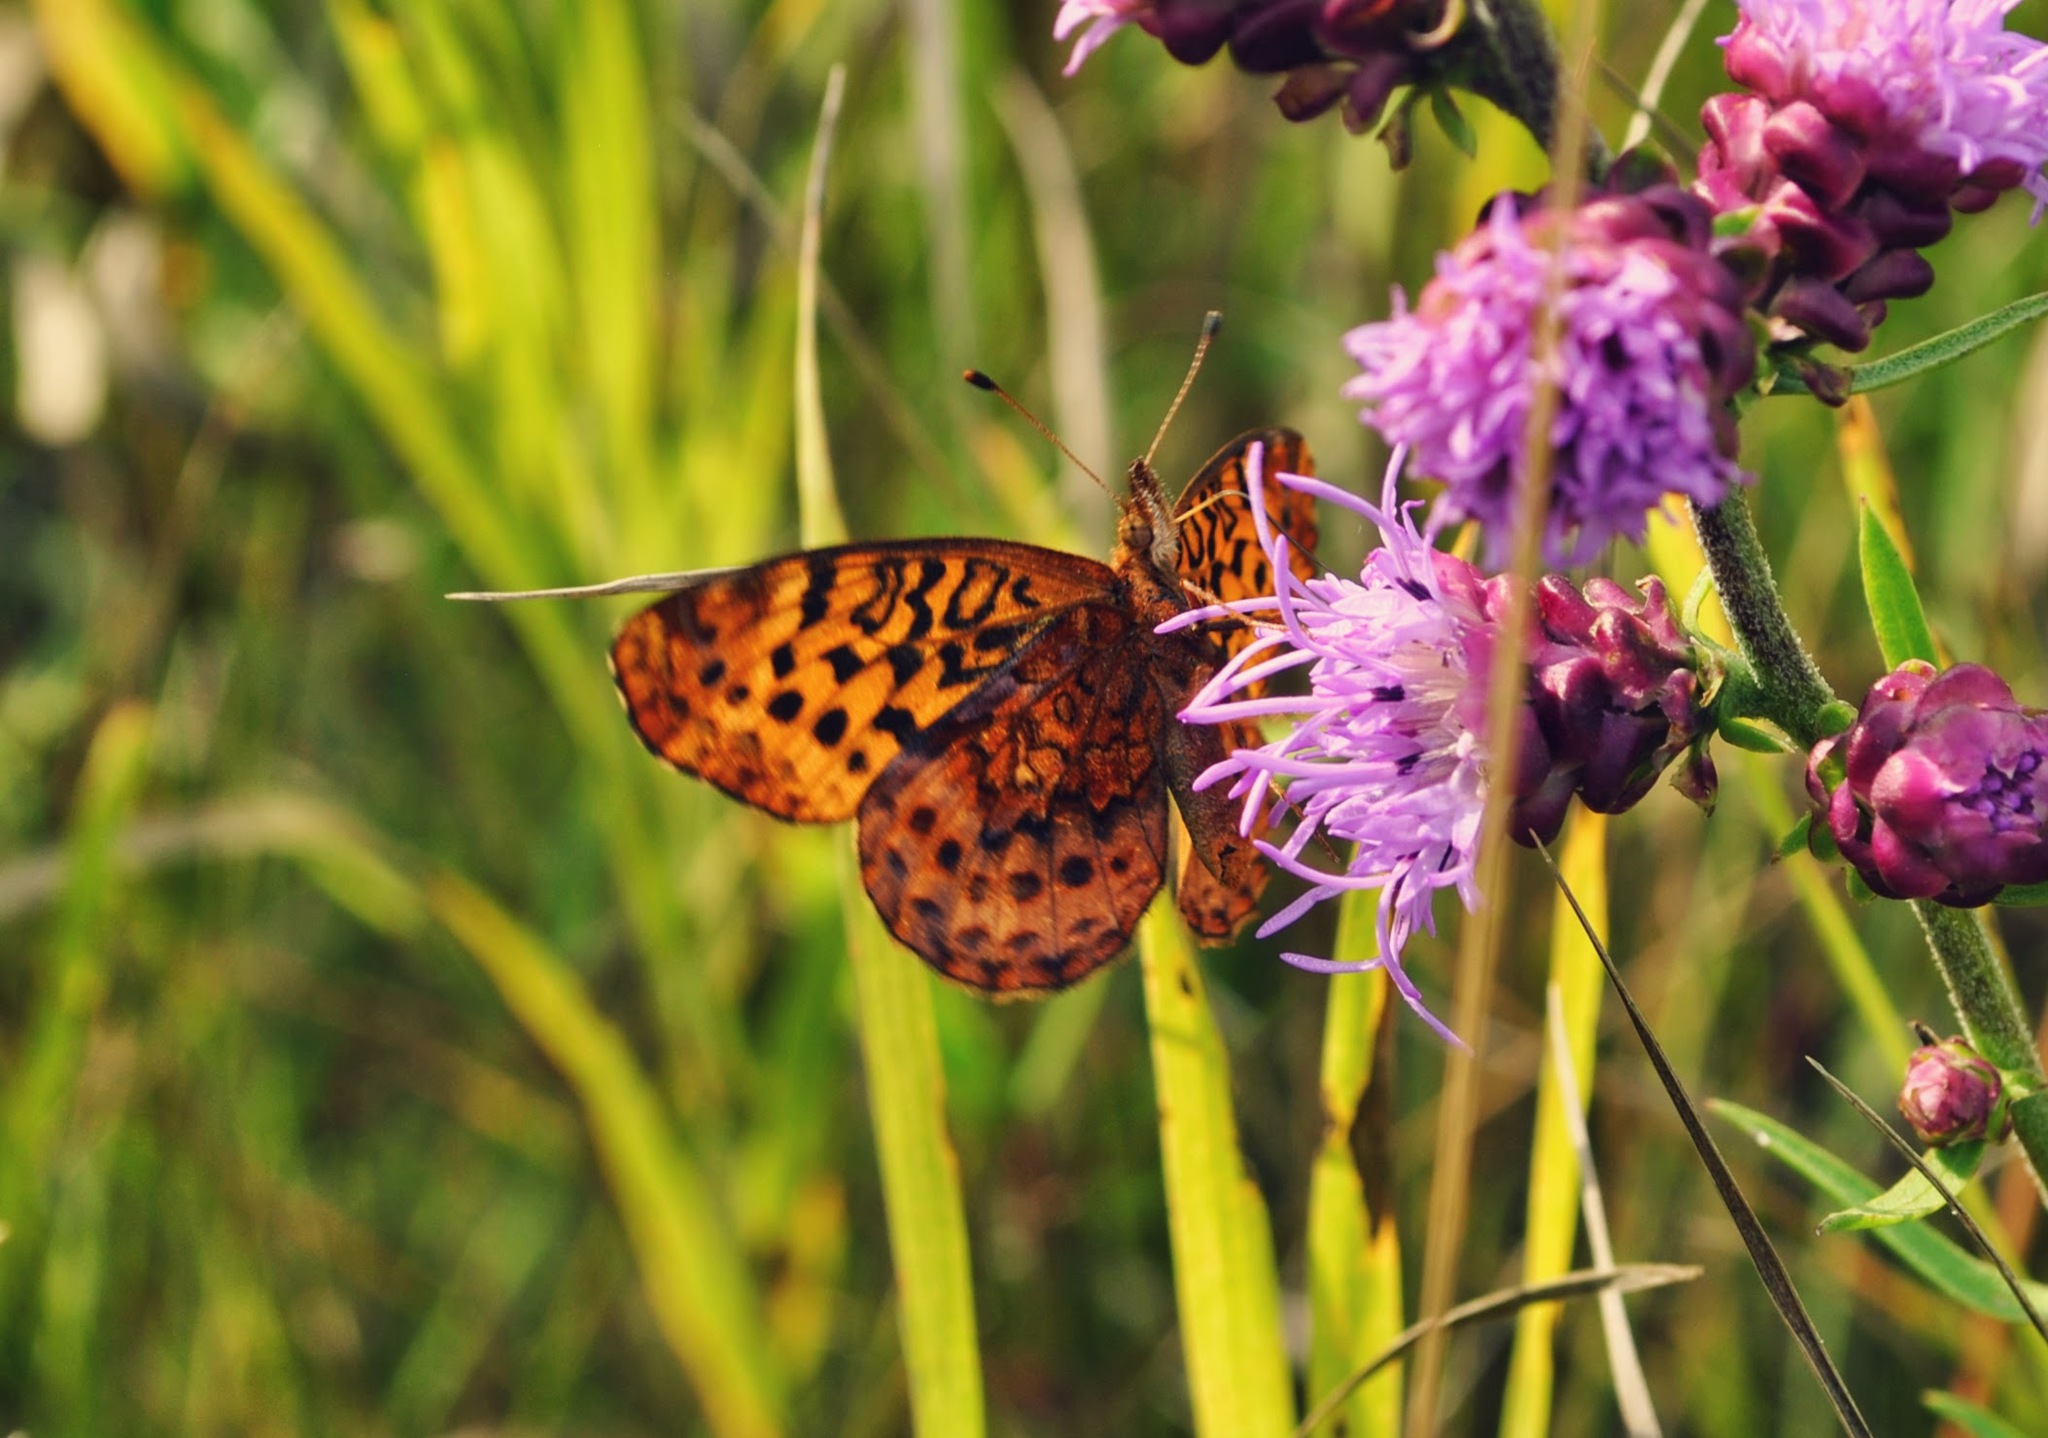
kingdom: Animalia
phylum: Arthropoda
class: Insecta
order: Lepidoptera
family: Nymphalidae
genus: Clossiana
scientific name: Clossiana toddi
